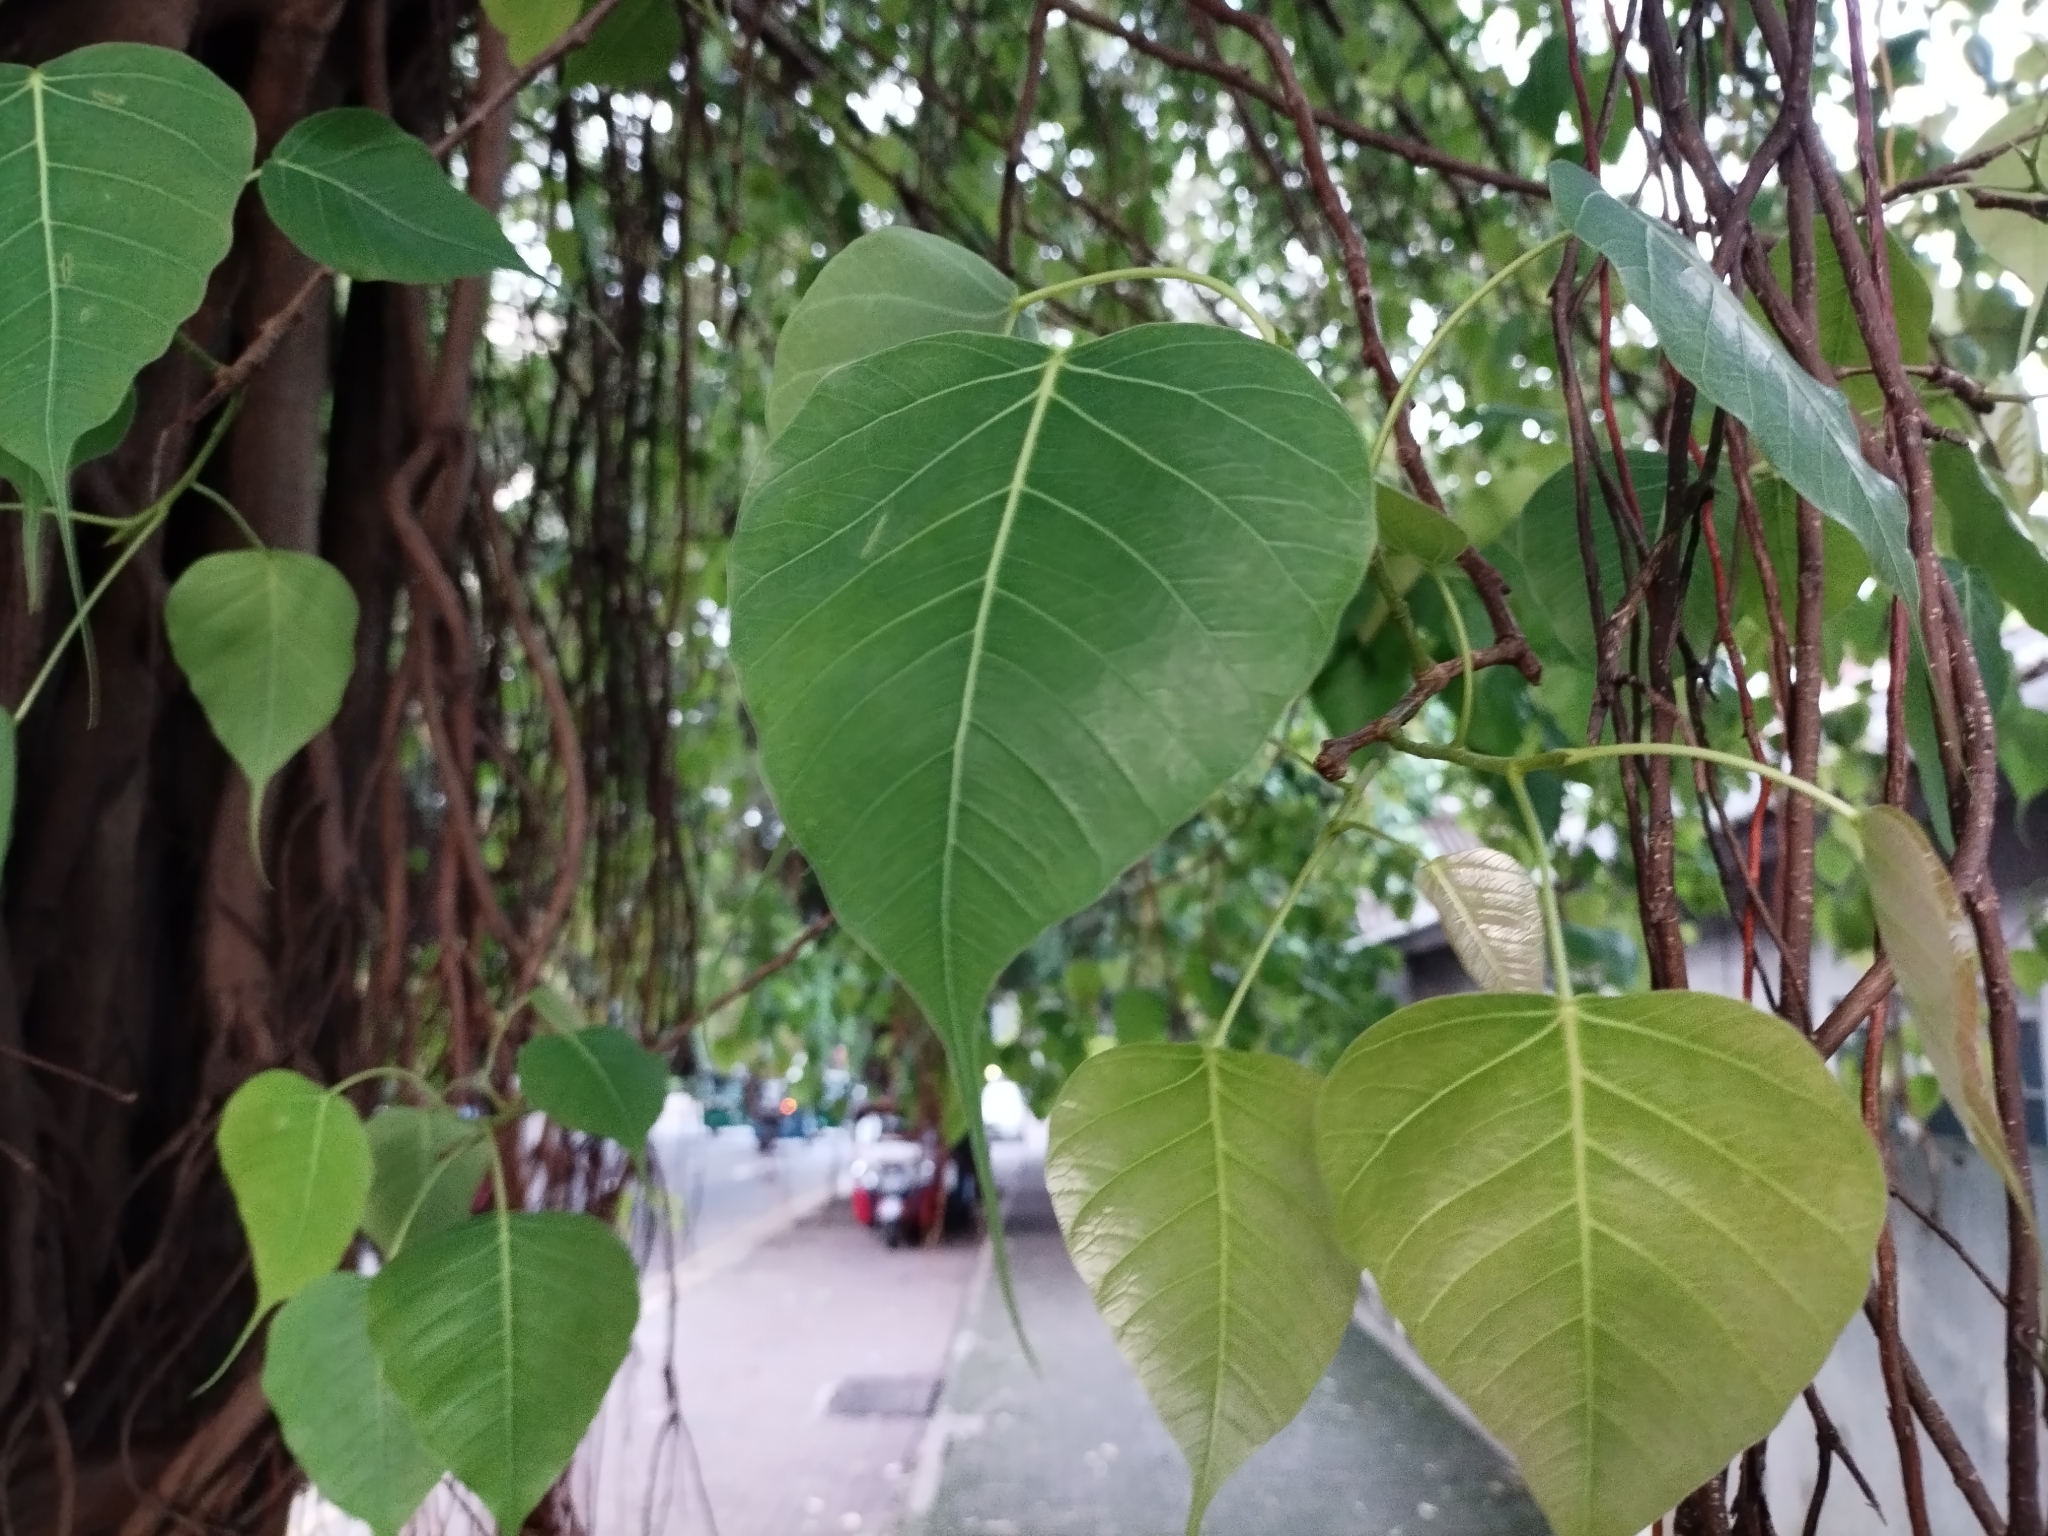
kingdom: Plantae
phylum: Tracheophyta
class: Magnoliopsida
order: Rosales
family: Moraceae
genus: Ficus
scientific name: Ficus religiosa
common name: Bodhi tree
